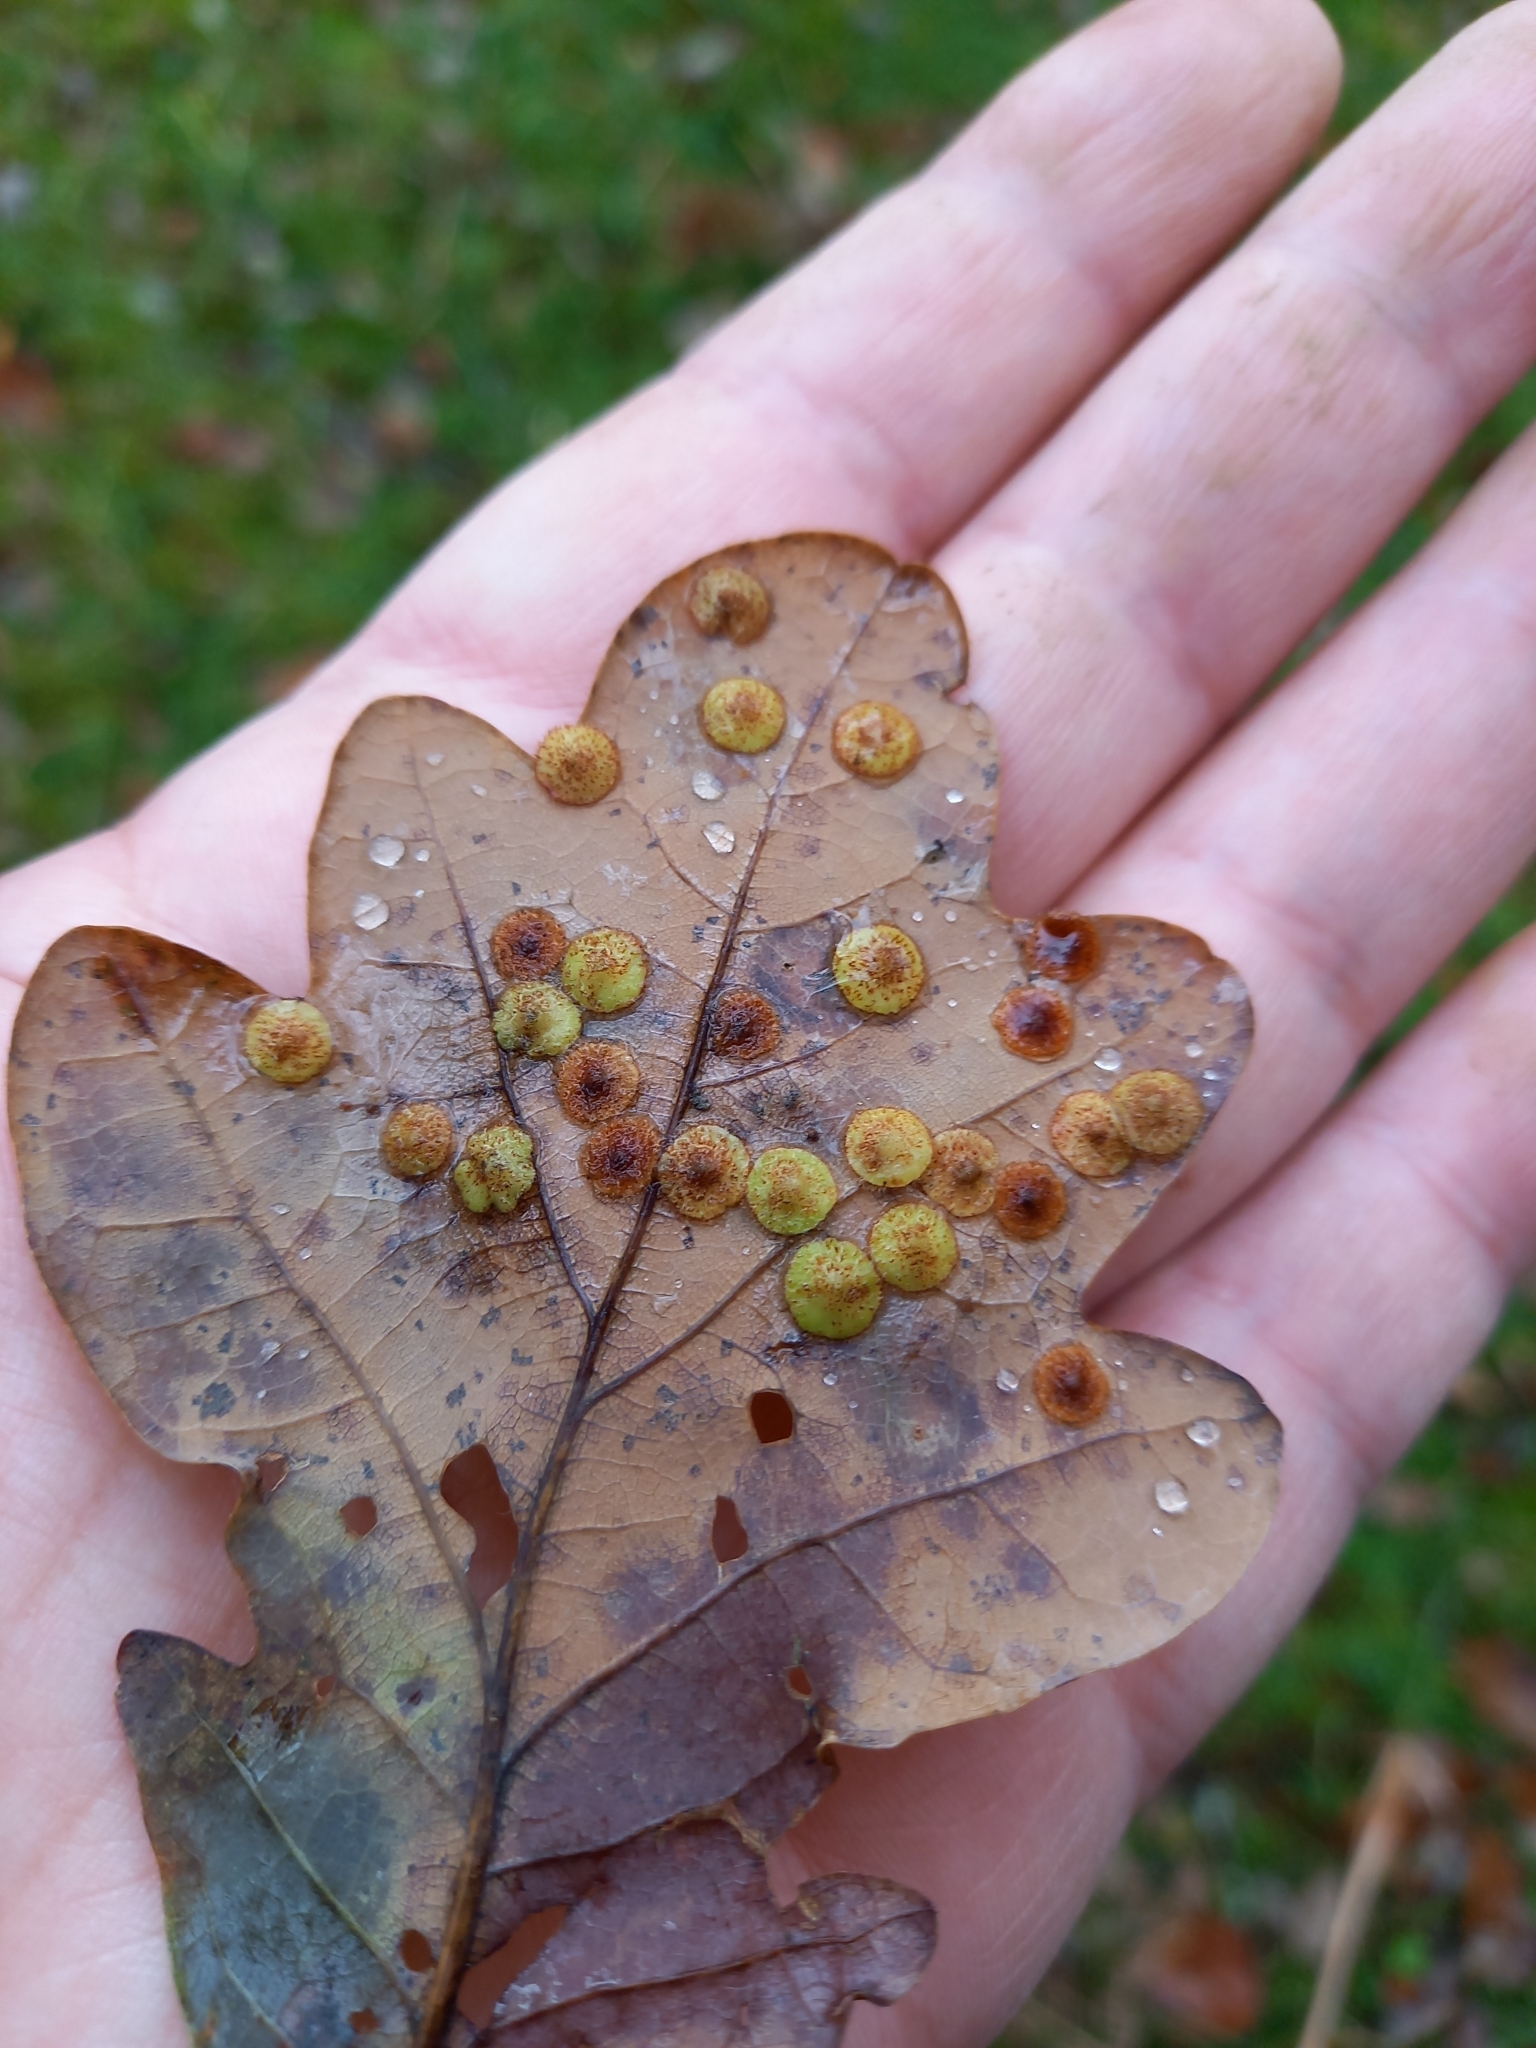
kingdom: Animalia
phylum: Arthropoda
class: Insecta
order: Hymenoptera
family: Cynipidae
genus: Neuroterus
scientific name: Neuroterus quercusbaccarum
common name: Common spangle gall
